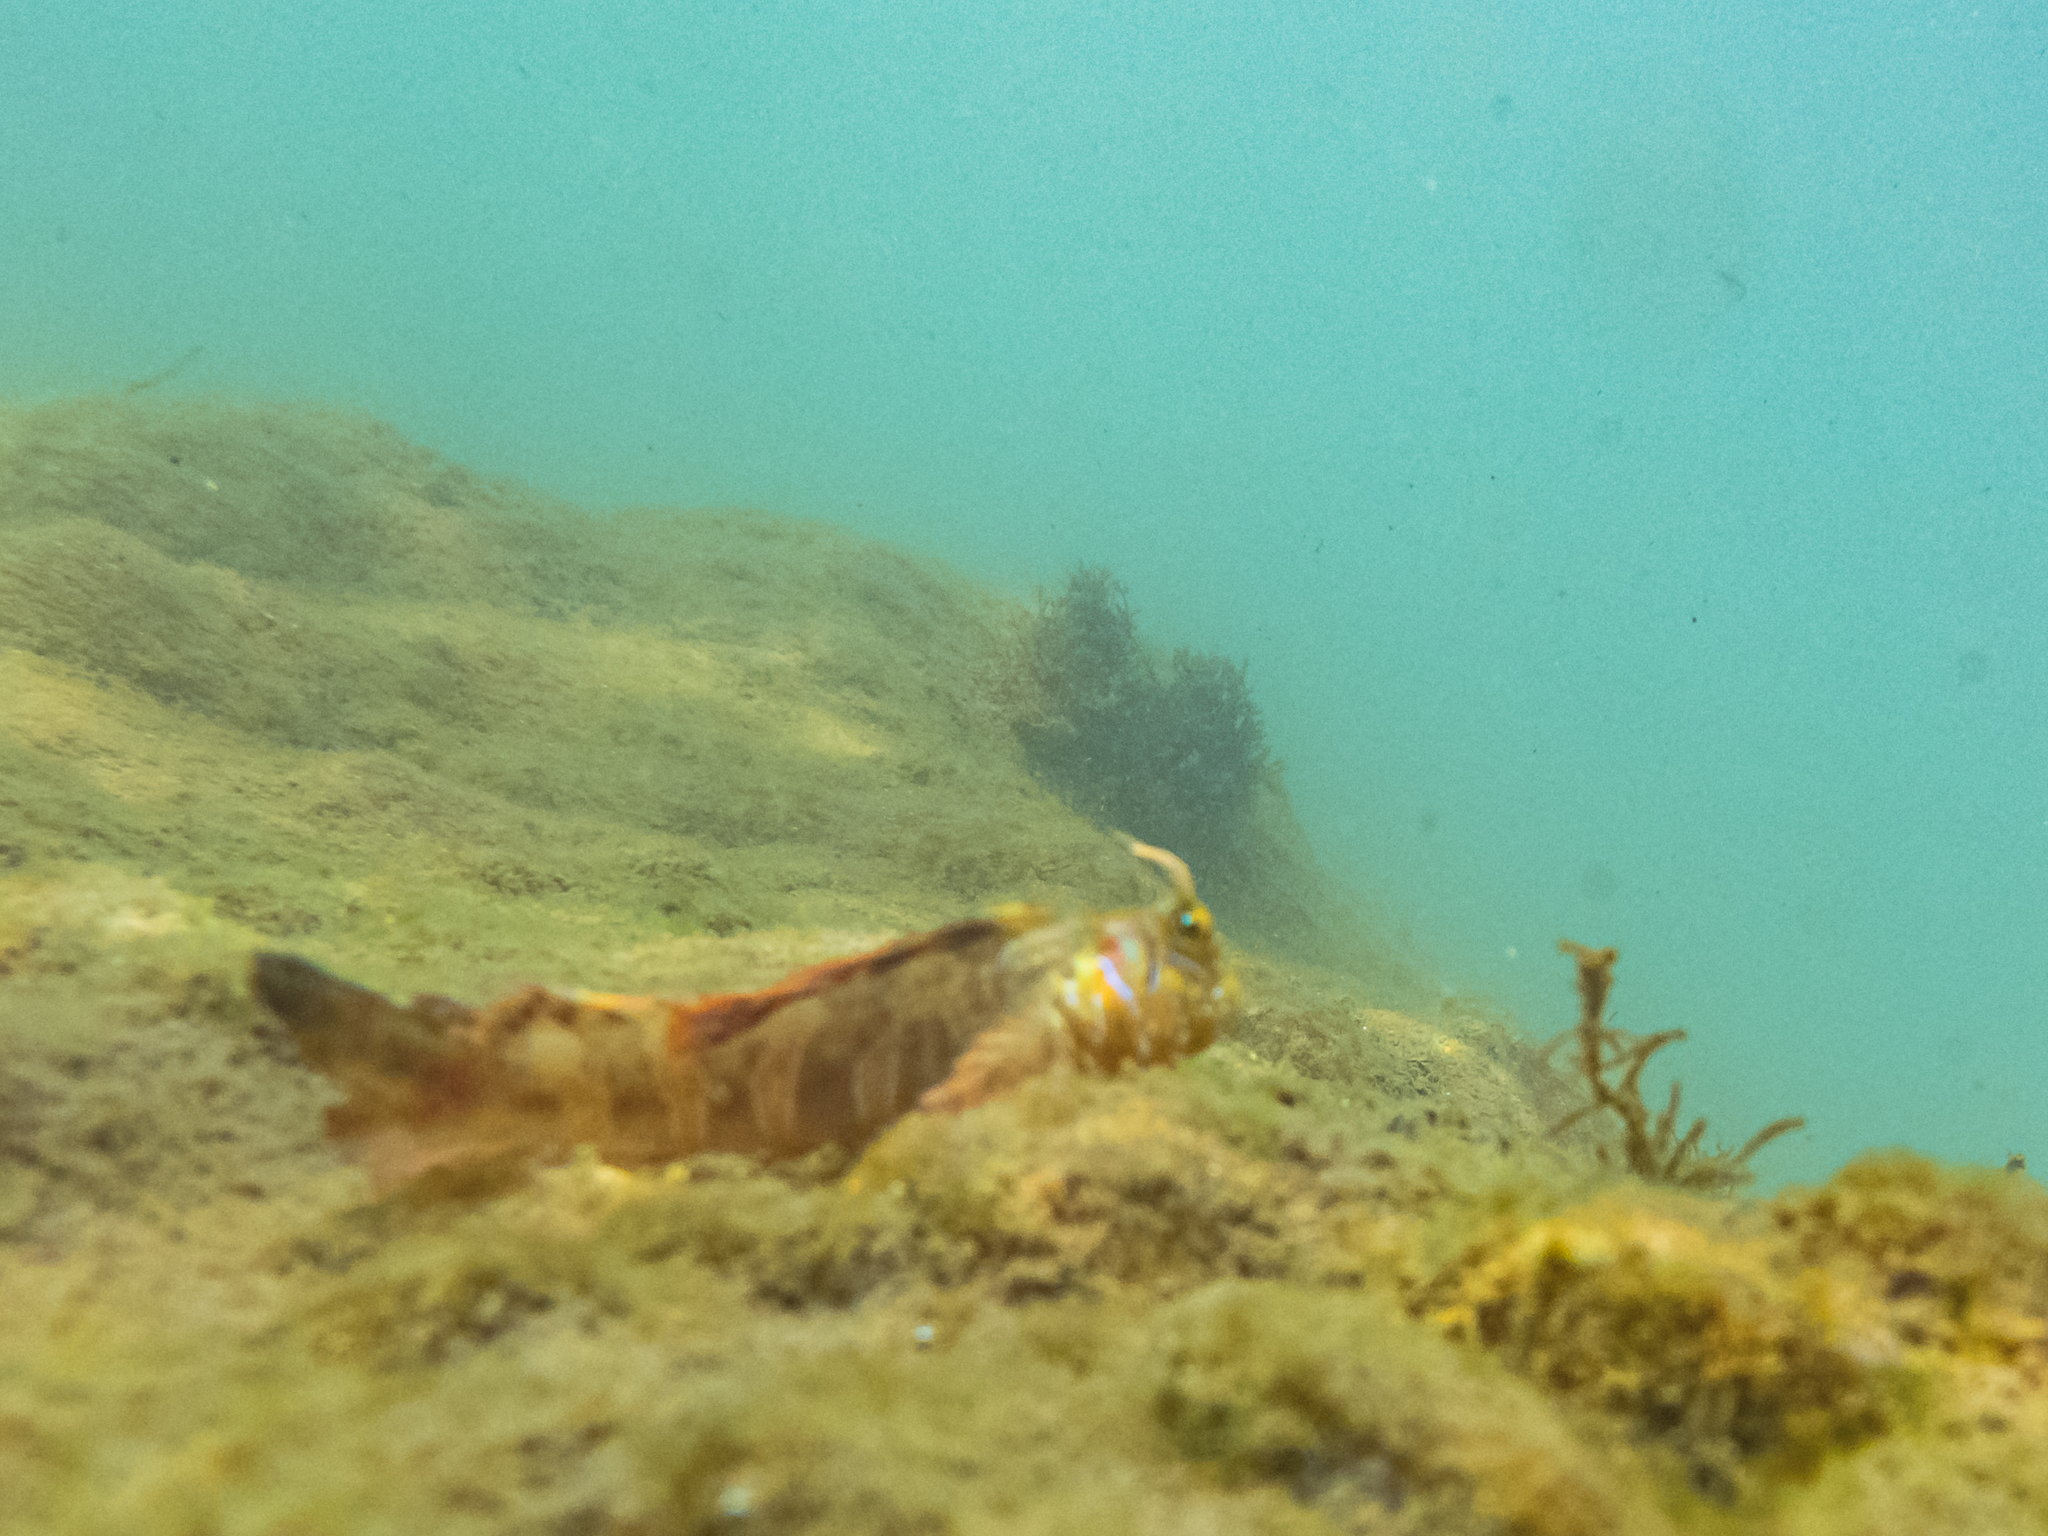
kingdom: Animalia
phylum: Chordata
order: Perciformes
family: Blenniidae
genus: Aidablennius
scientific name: Aidablennius sphynx
